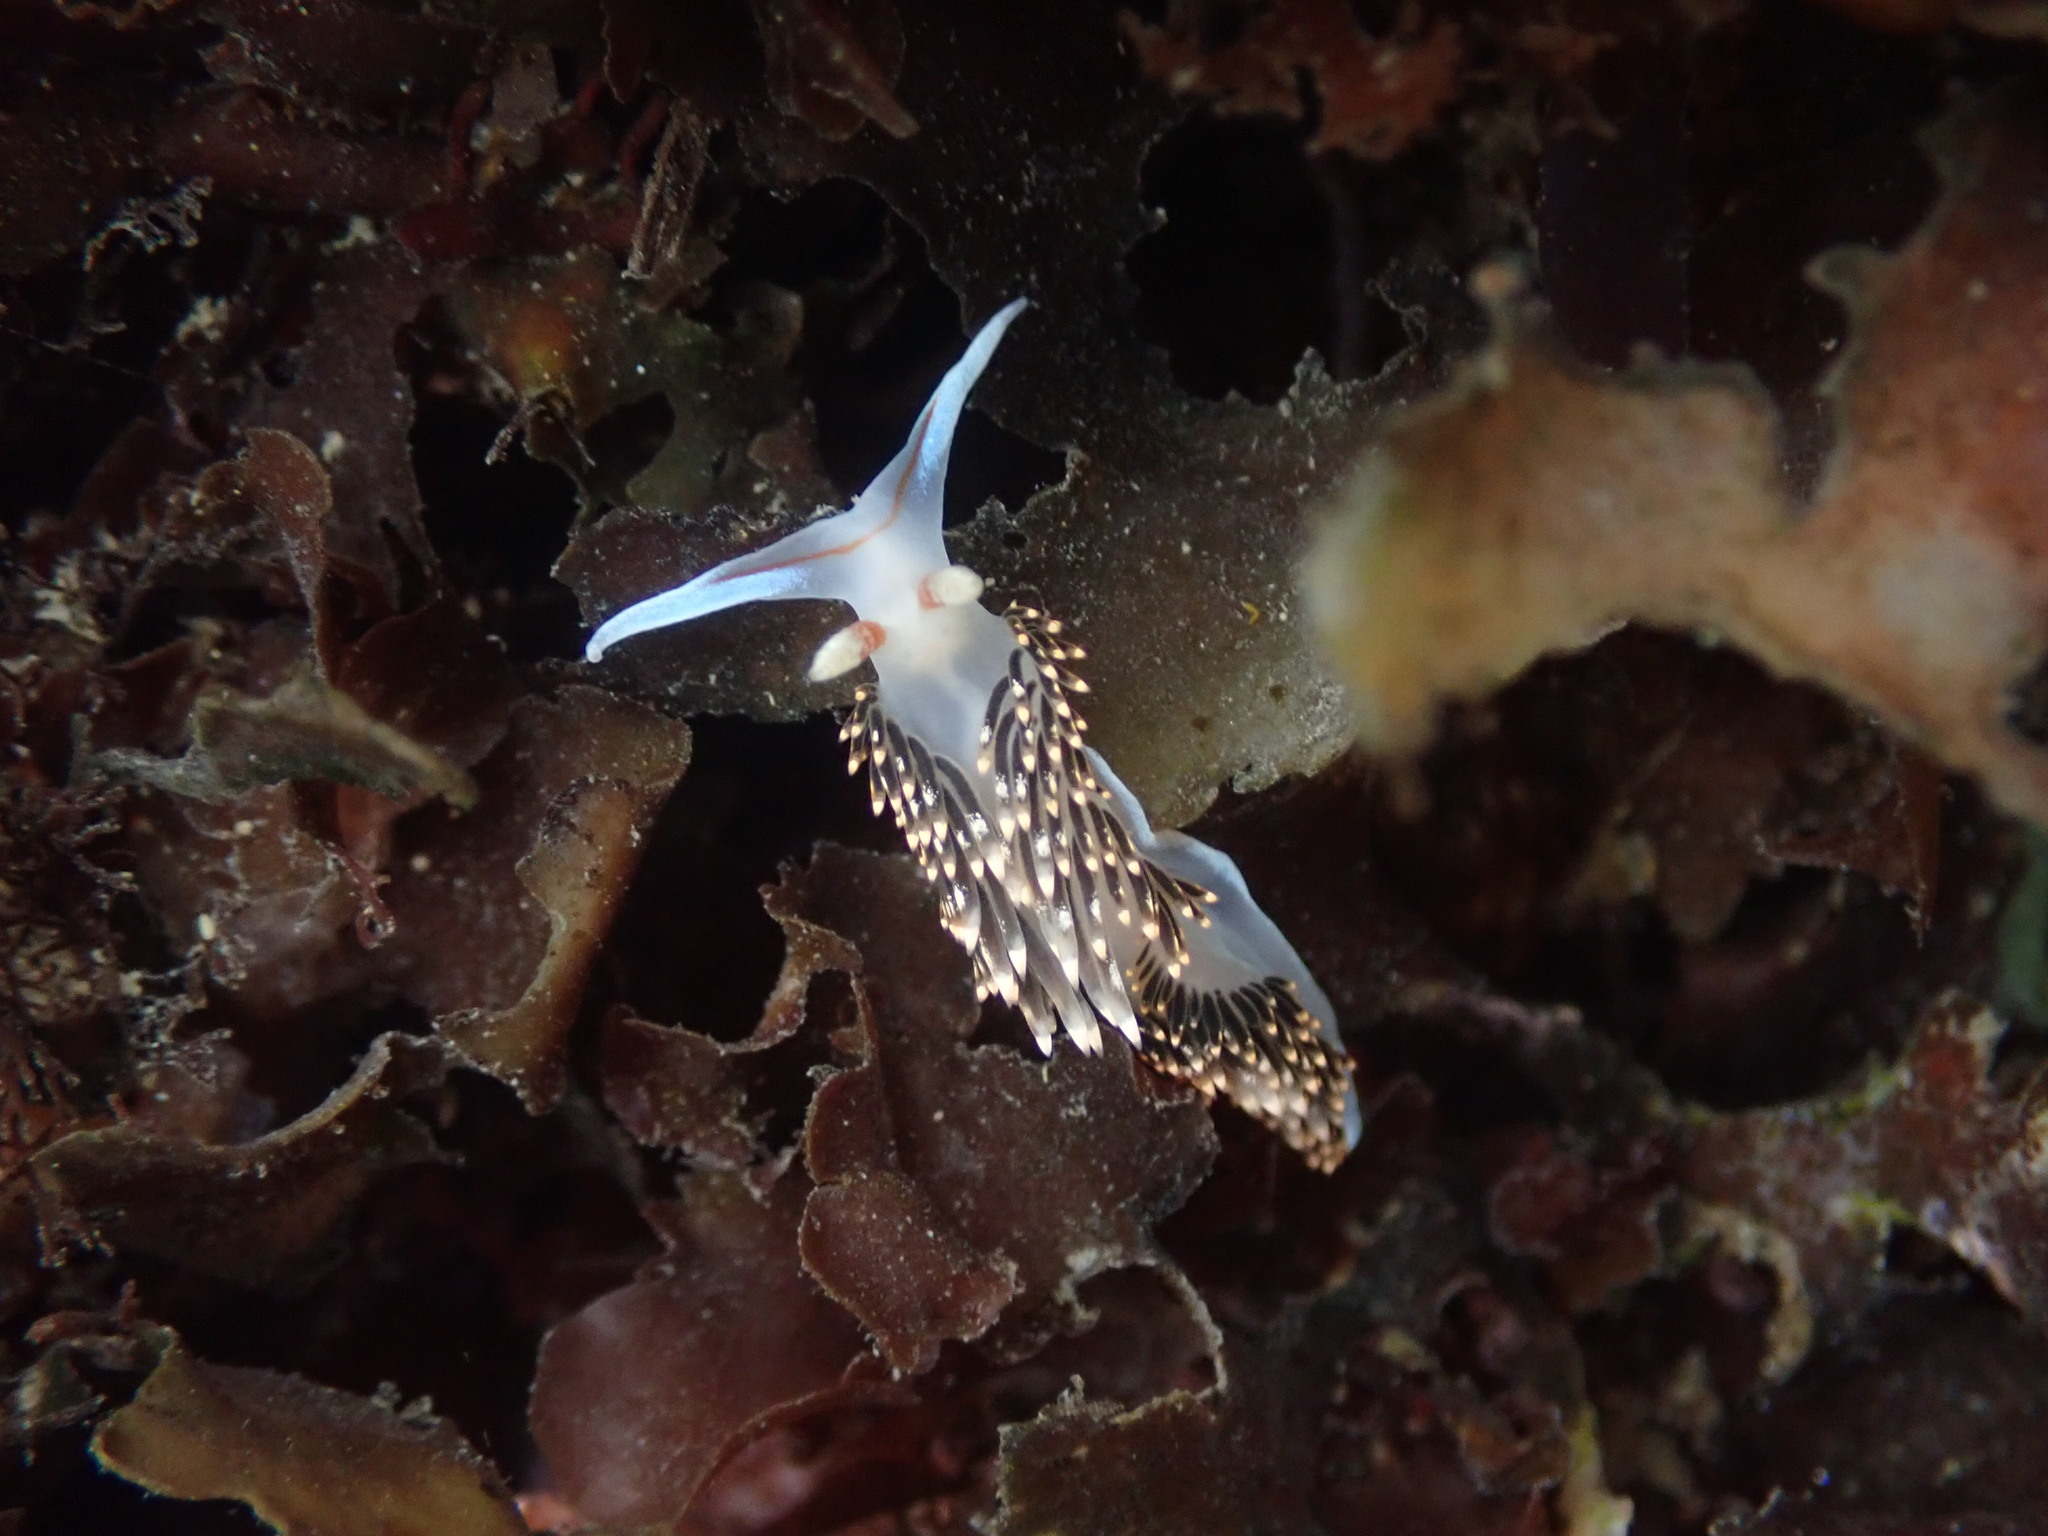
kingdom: Animalia
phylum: Mollusca
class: Gastropoda
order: Nudibranchia
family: Facelinidae
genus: Phidiana
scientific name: Phidiana hiltoni
